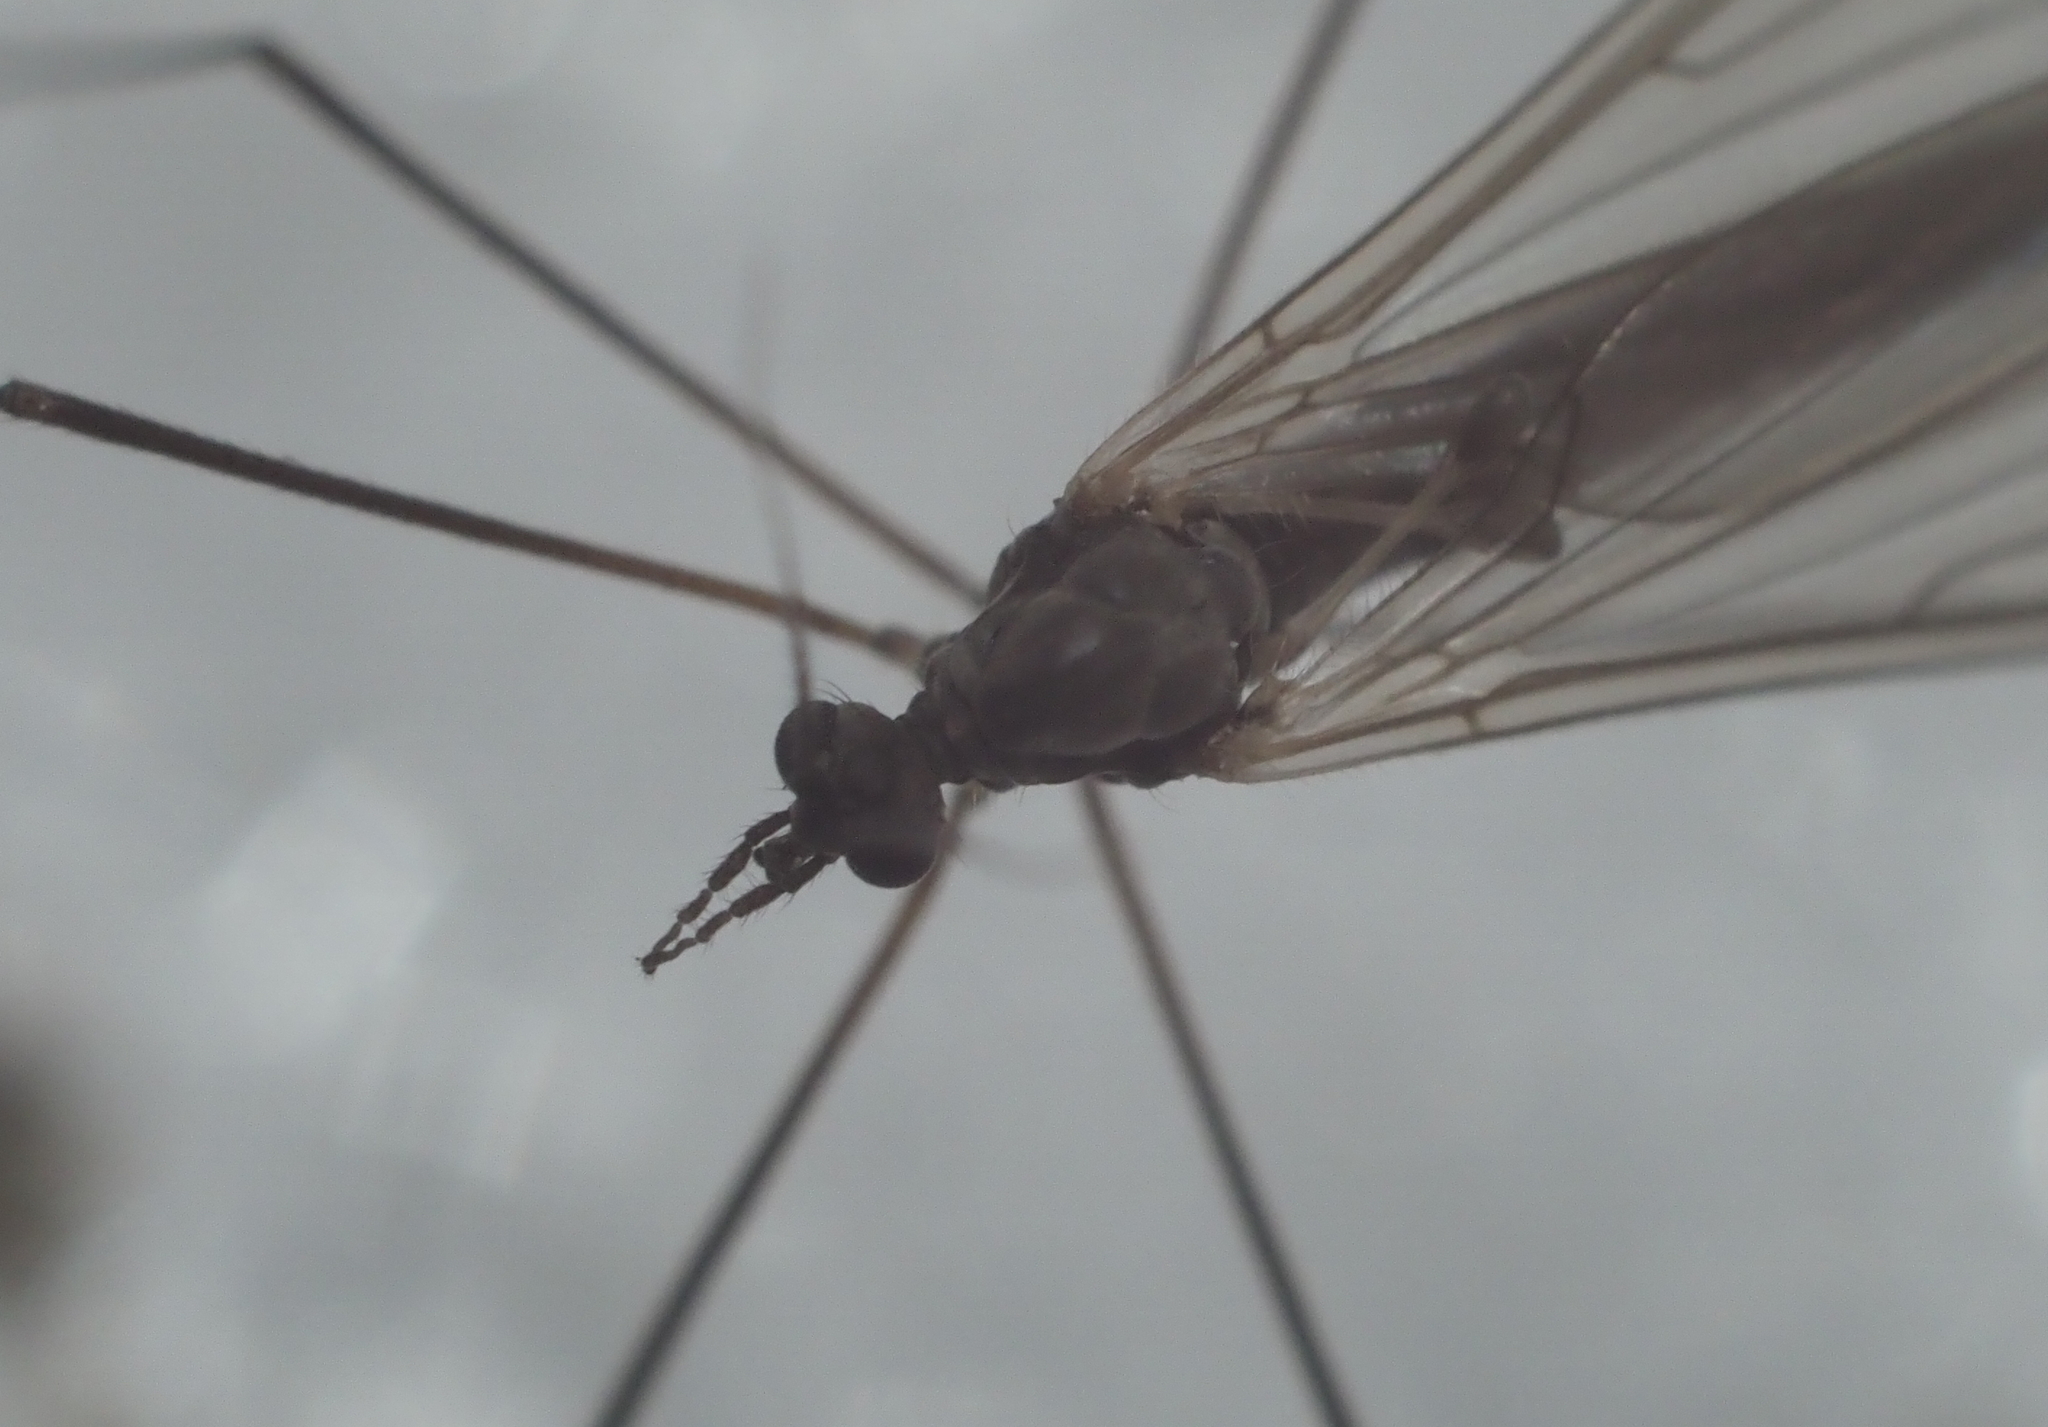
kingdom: Animalia
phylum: Arthropoda
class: Insecta
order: Diptera
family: Trichoceridae
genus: Trichocera
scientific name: Trichocera
